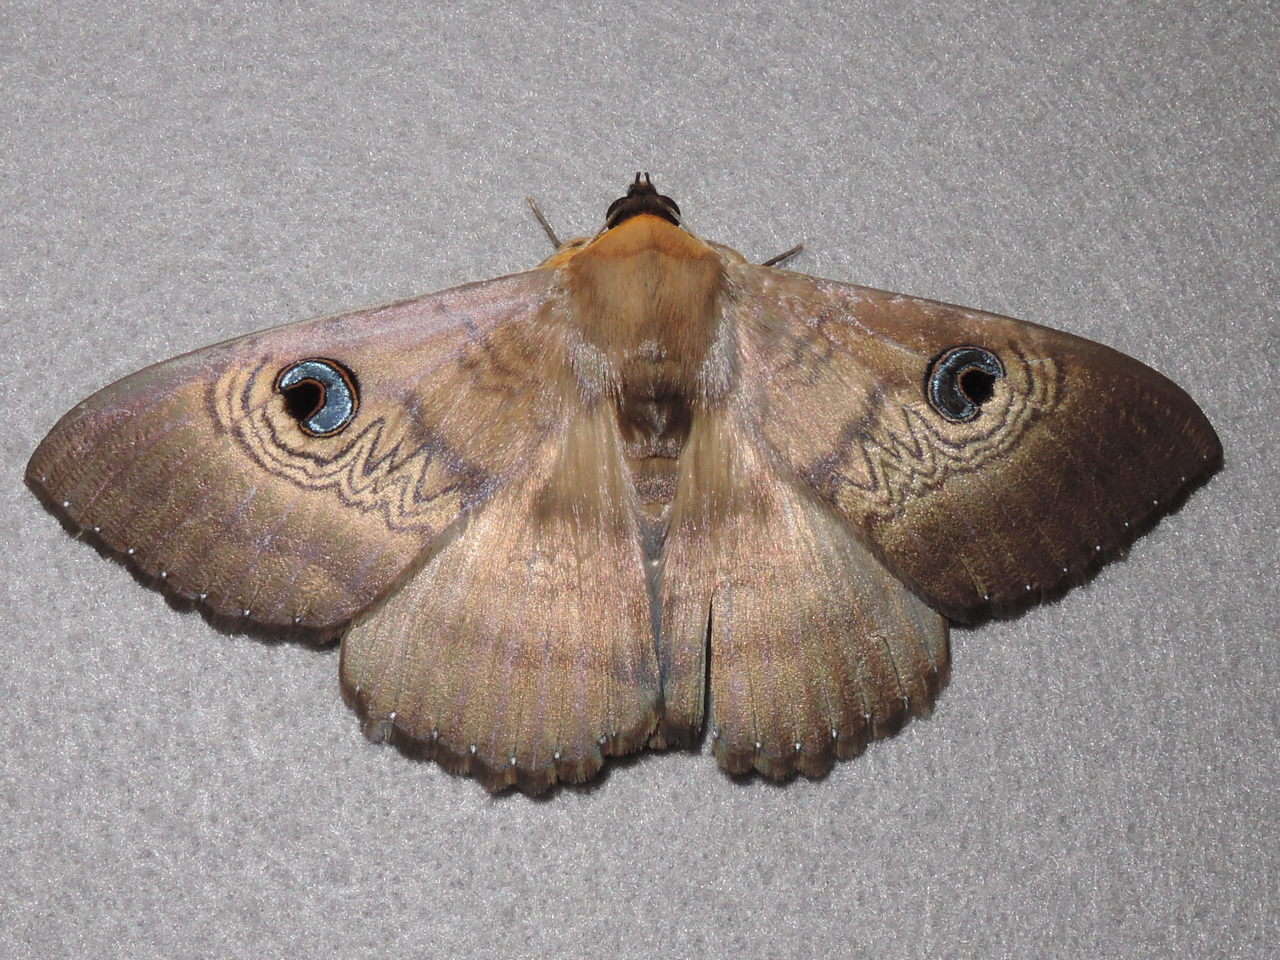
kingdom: Animalia
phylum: Arthropoda
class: Insecta
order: Lepidoptera
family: Erebidae
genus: Dasypodia
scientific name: Dasypodia selenophora
